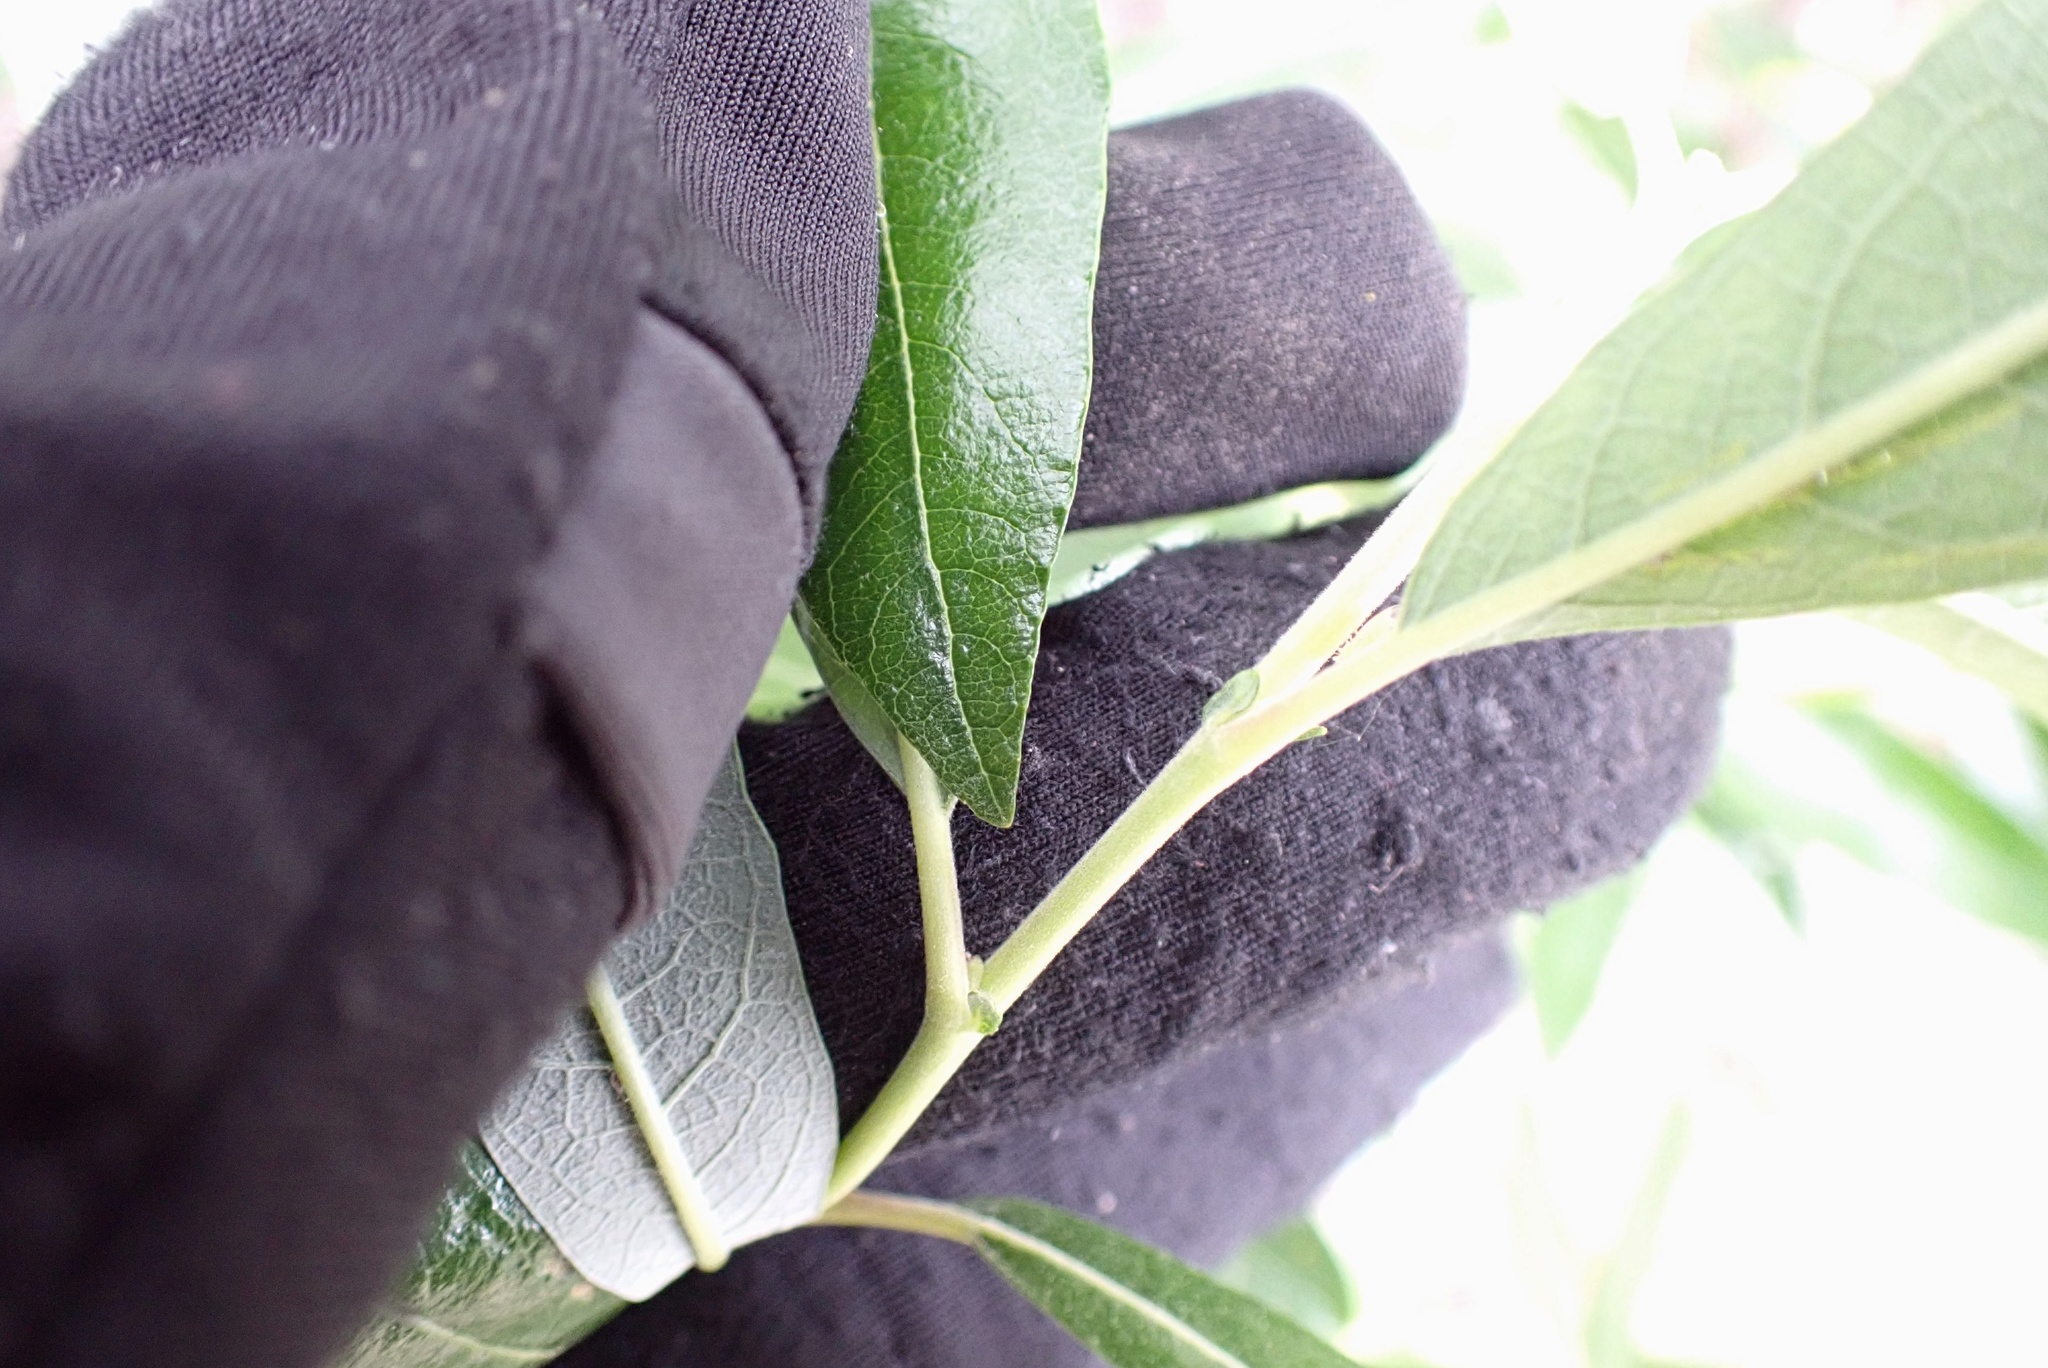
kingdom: Plantae
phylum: Tracheophyta
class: Magnoliopsida
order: Malpighiales
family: Salicaceae
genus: Salix
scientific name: Salix lasiolepis
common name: Arroyo willow
